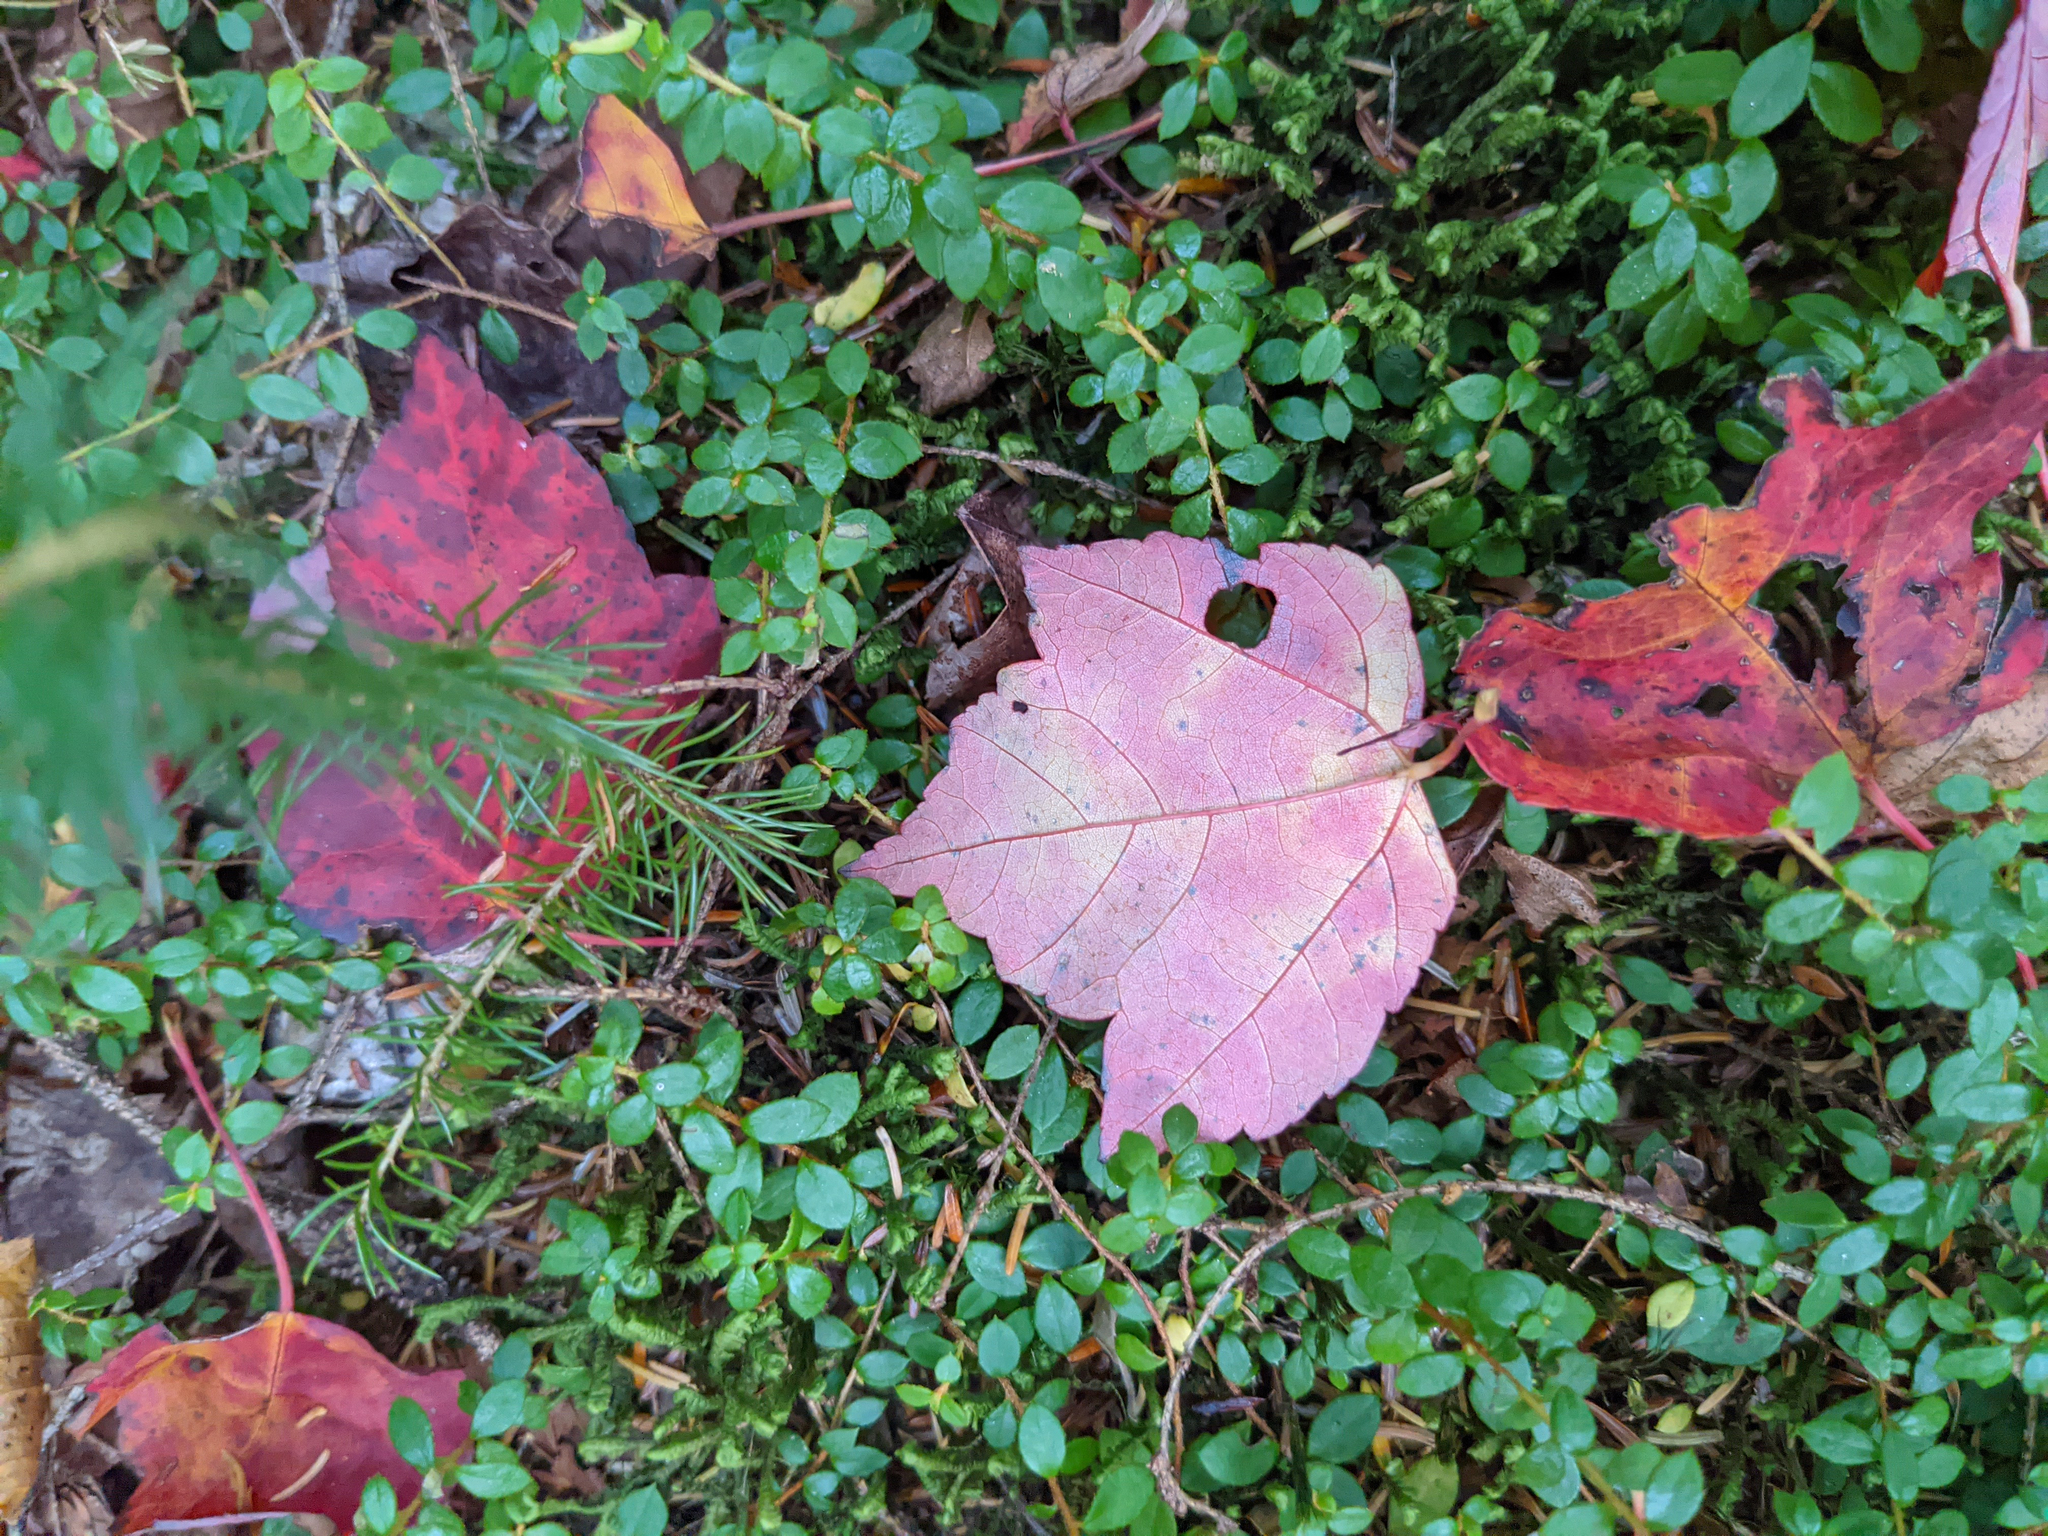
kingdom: Plantae
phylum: Tracheophyta
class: Magnoliopsida
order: Sapindales
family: Sapindaceae
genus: Acer
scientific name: Acer rubrum
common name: Red maple
